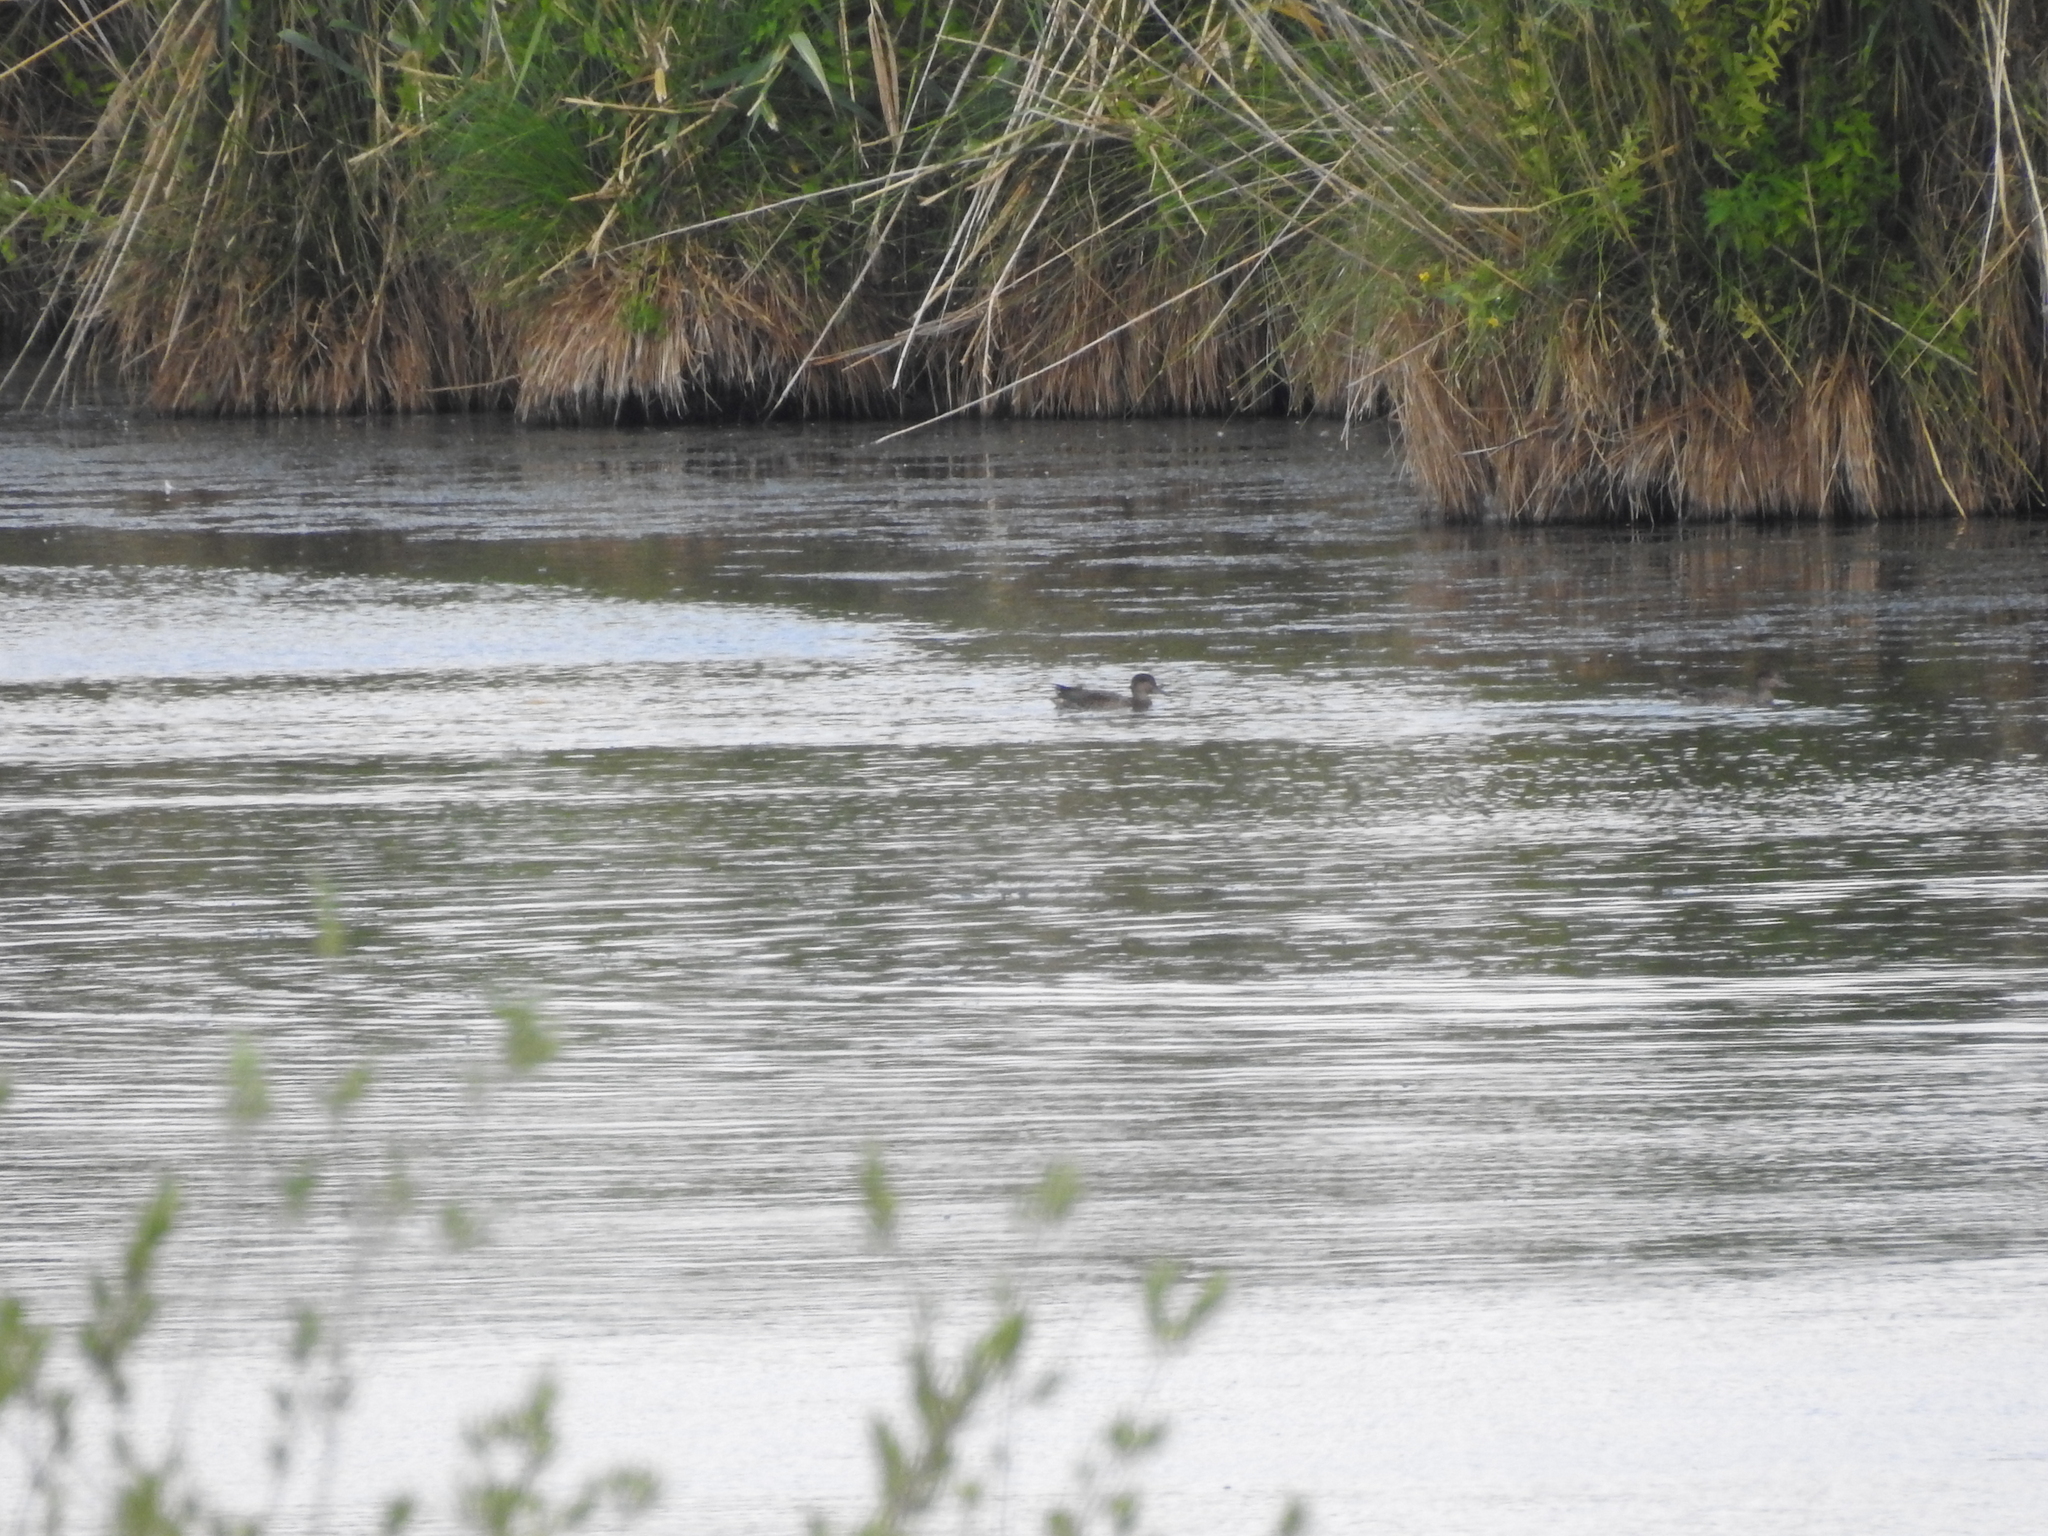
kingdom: Animalia
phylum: Chordata
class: Aves
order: Anseriformes
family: Anatidae
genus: Anas
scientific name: Anas platyrhynchos
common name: Mallard
